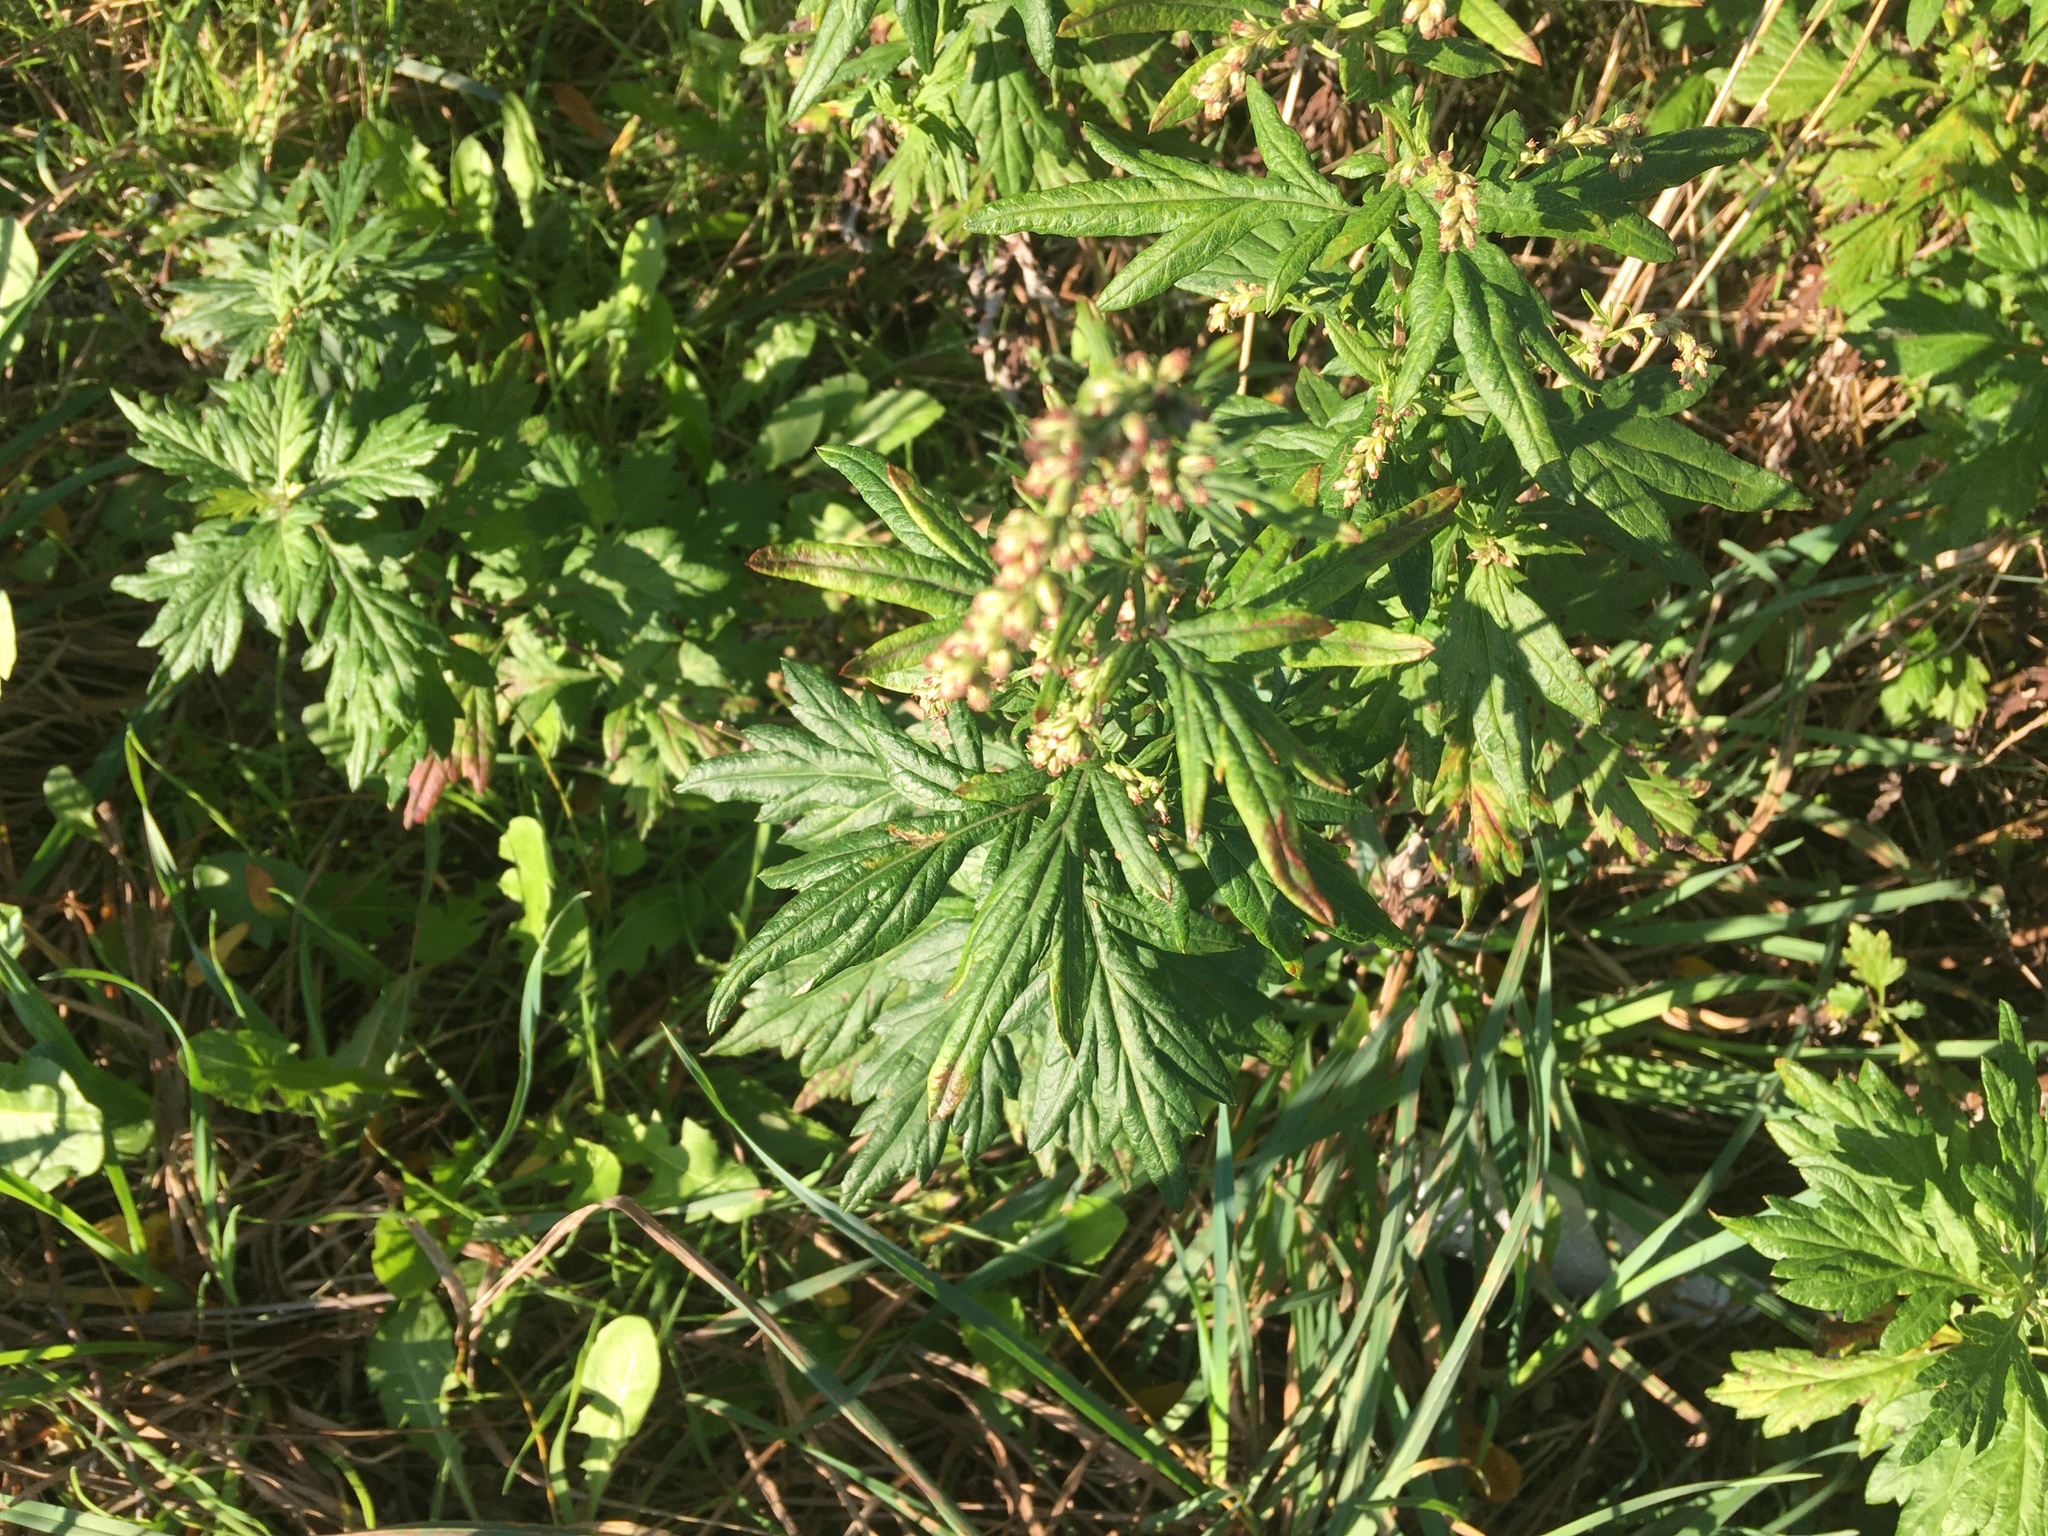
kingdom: Plantae
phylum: Tracheophyta
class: Magnoliopsida
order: Asterales
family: Asteraceae
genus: Artemisia
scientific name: Artemisia vulgaris
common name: Mugwort
